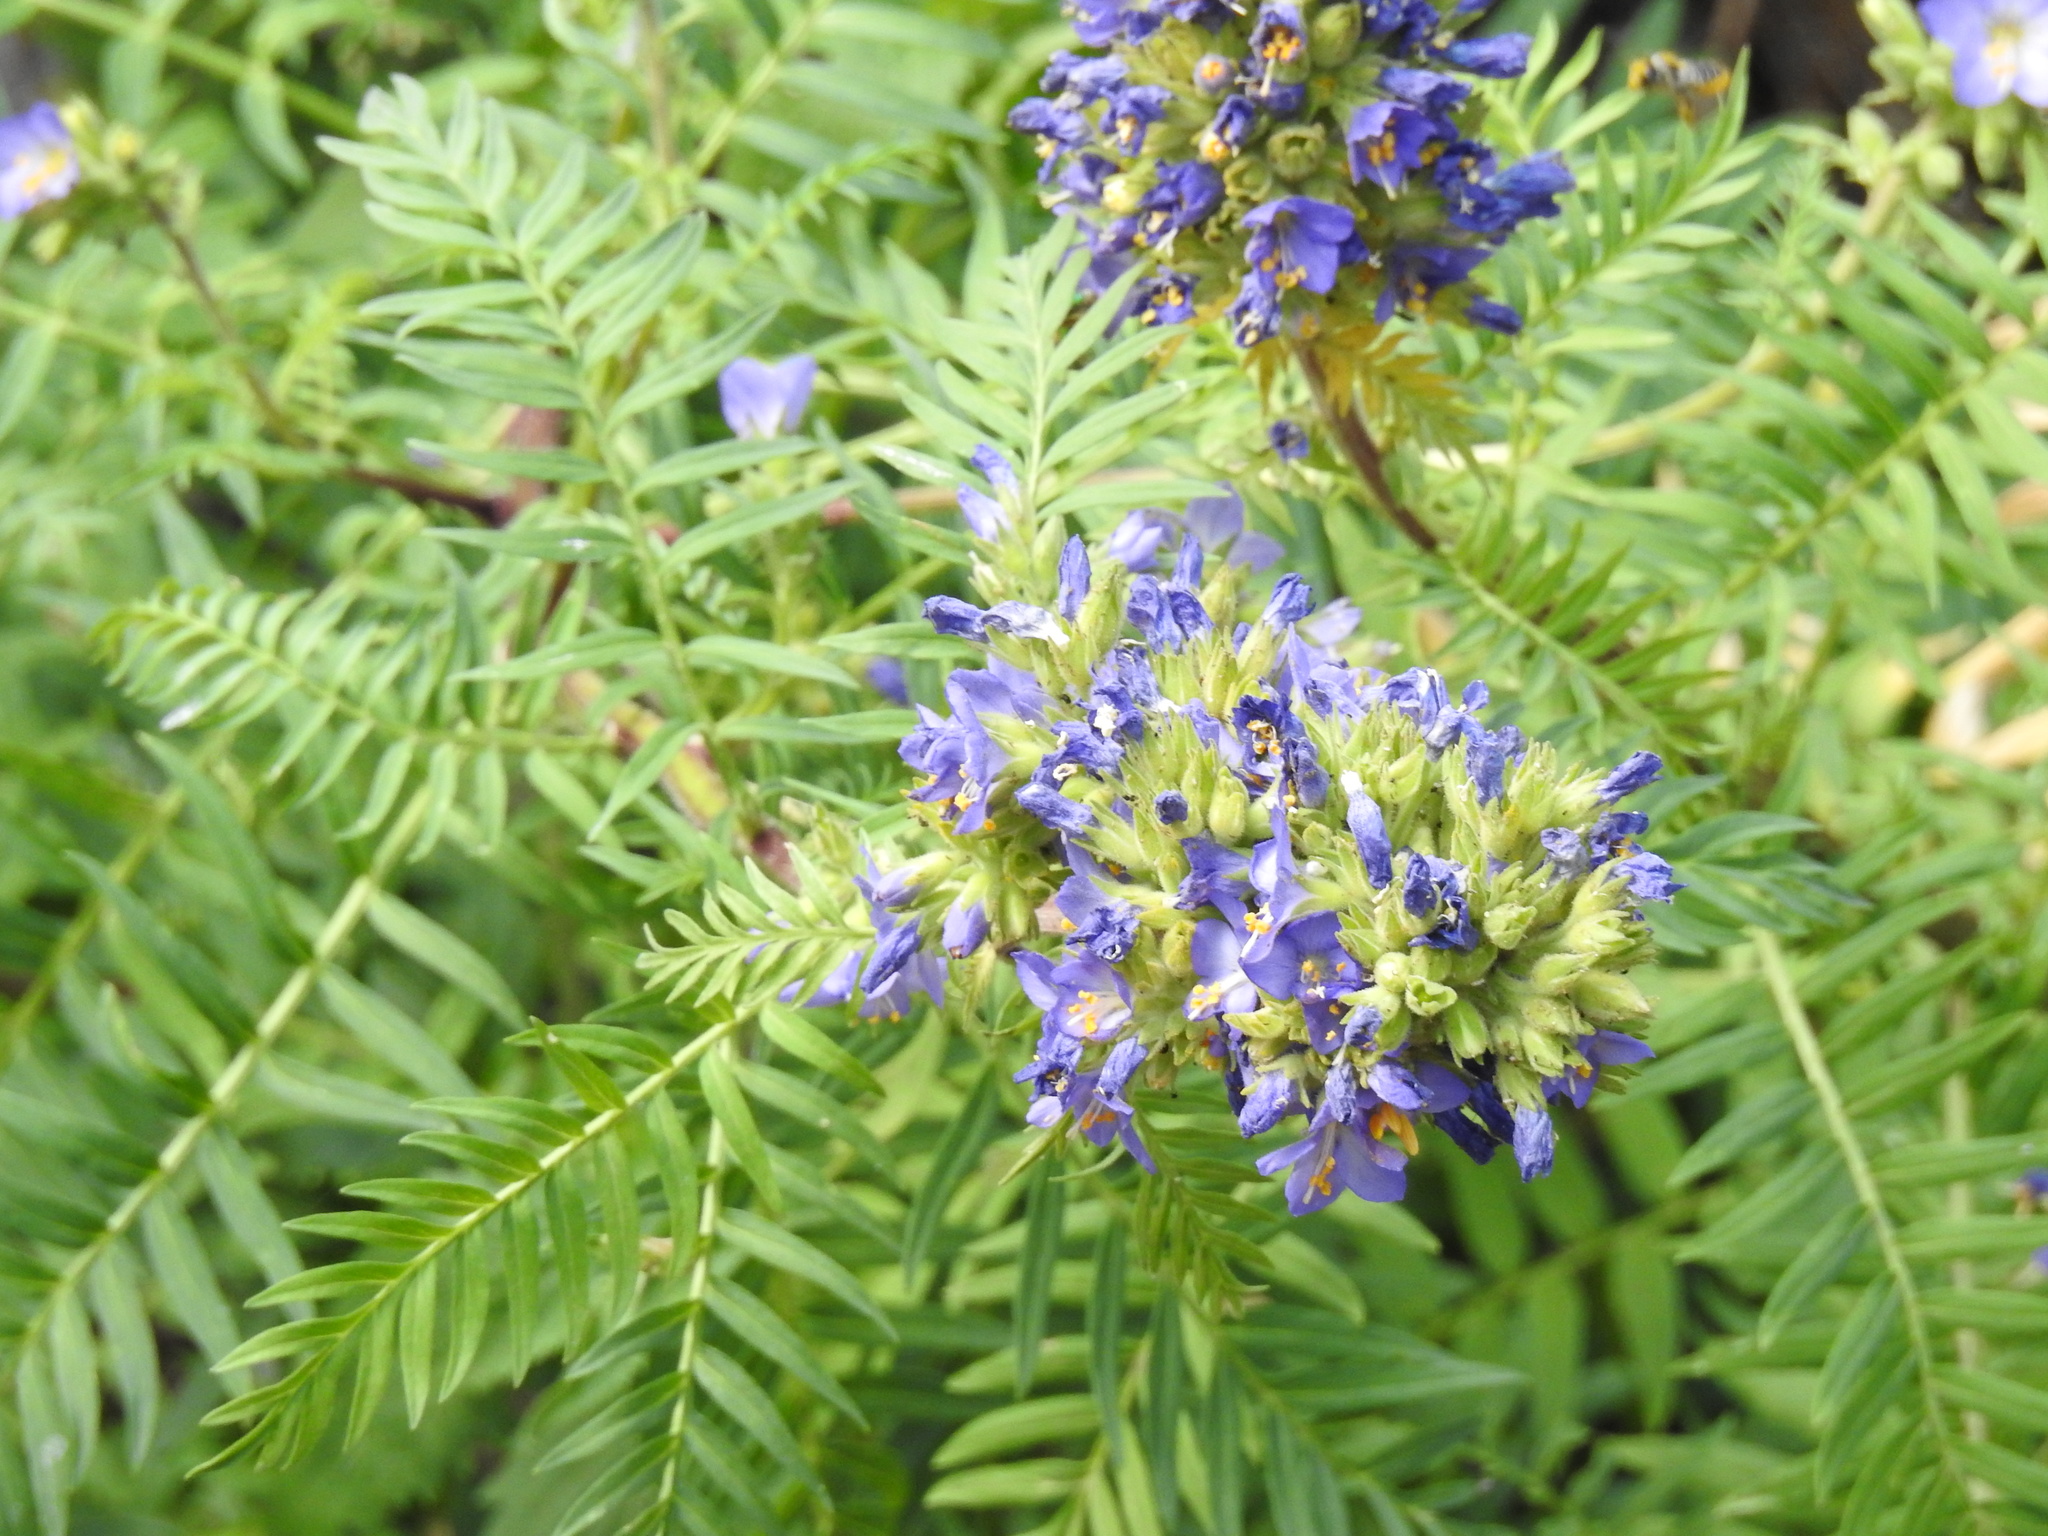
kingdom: Plantae
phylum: Tracheophyta
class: Magnoliopsida
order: Ericales
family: Polemoniaceae
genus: Polemonium
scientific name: Polemonium foliosissimum
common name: Leafy jacob's-ladder
